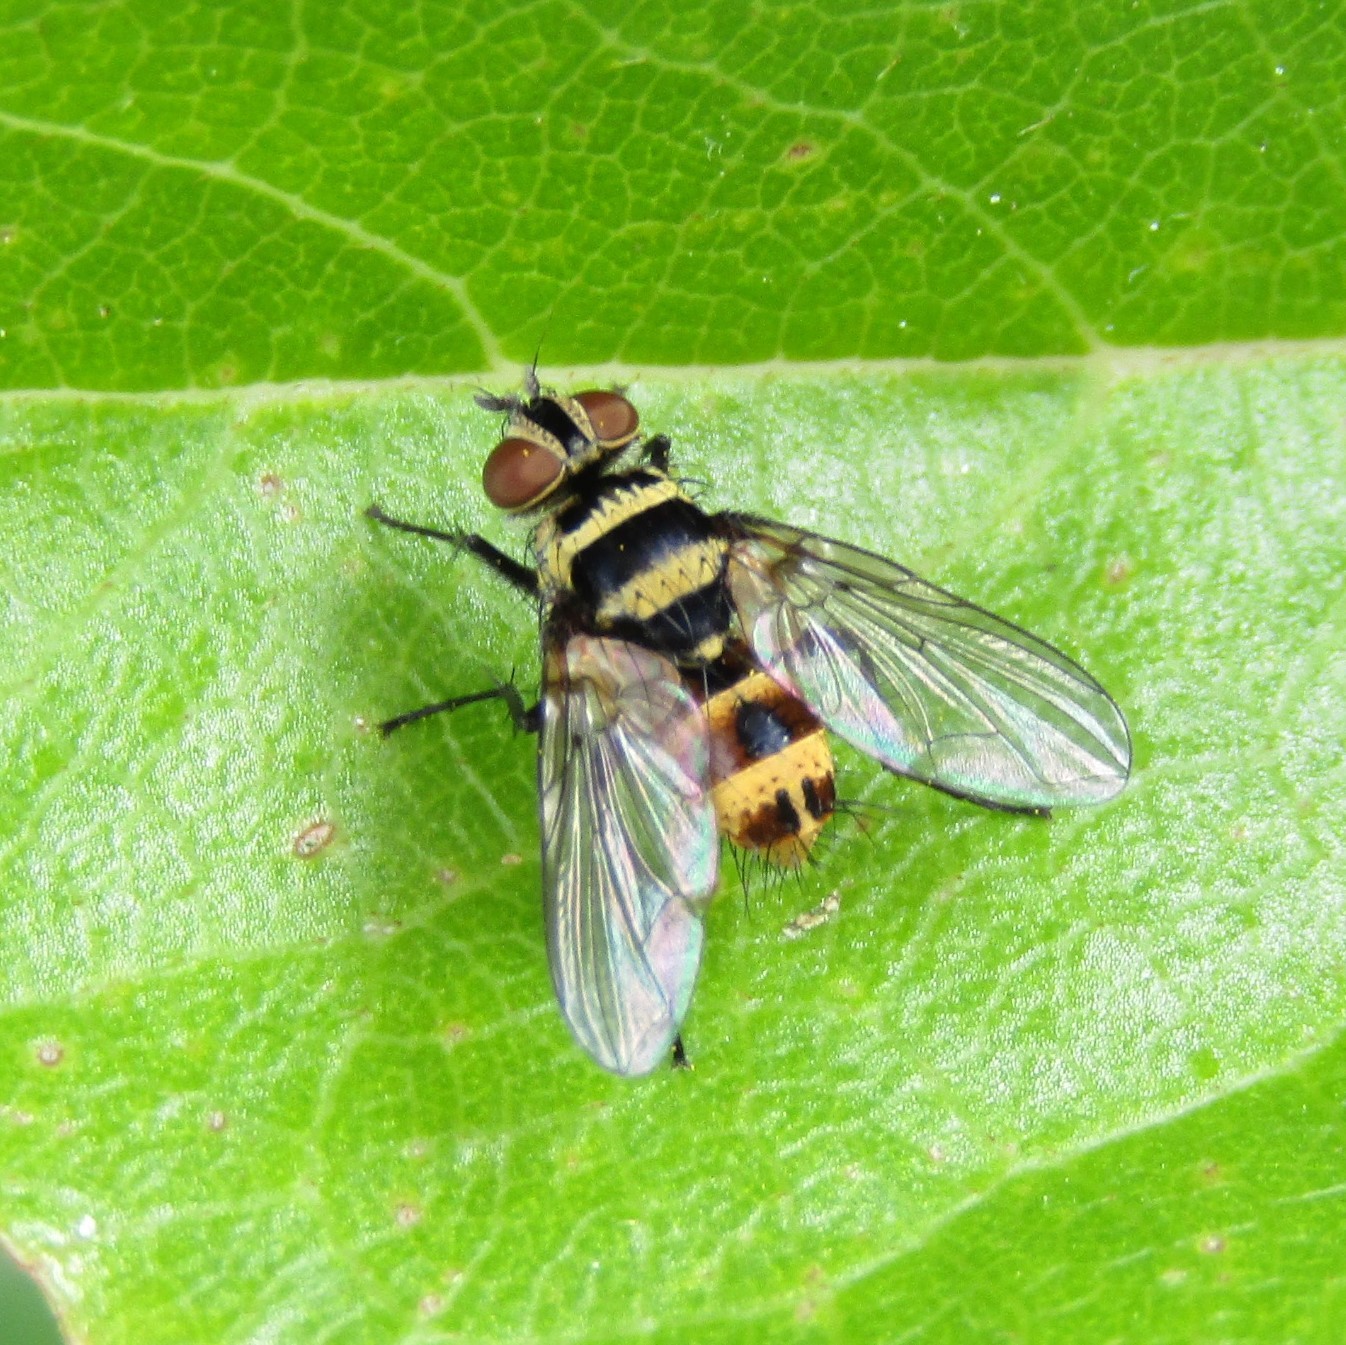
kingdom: Animalia
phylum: Arthropoda
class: Insecta
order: Diptera
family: Tachinidae
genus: Trigonospila
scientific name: Trigonospila brevifacies
